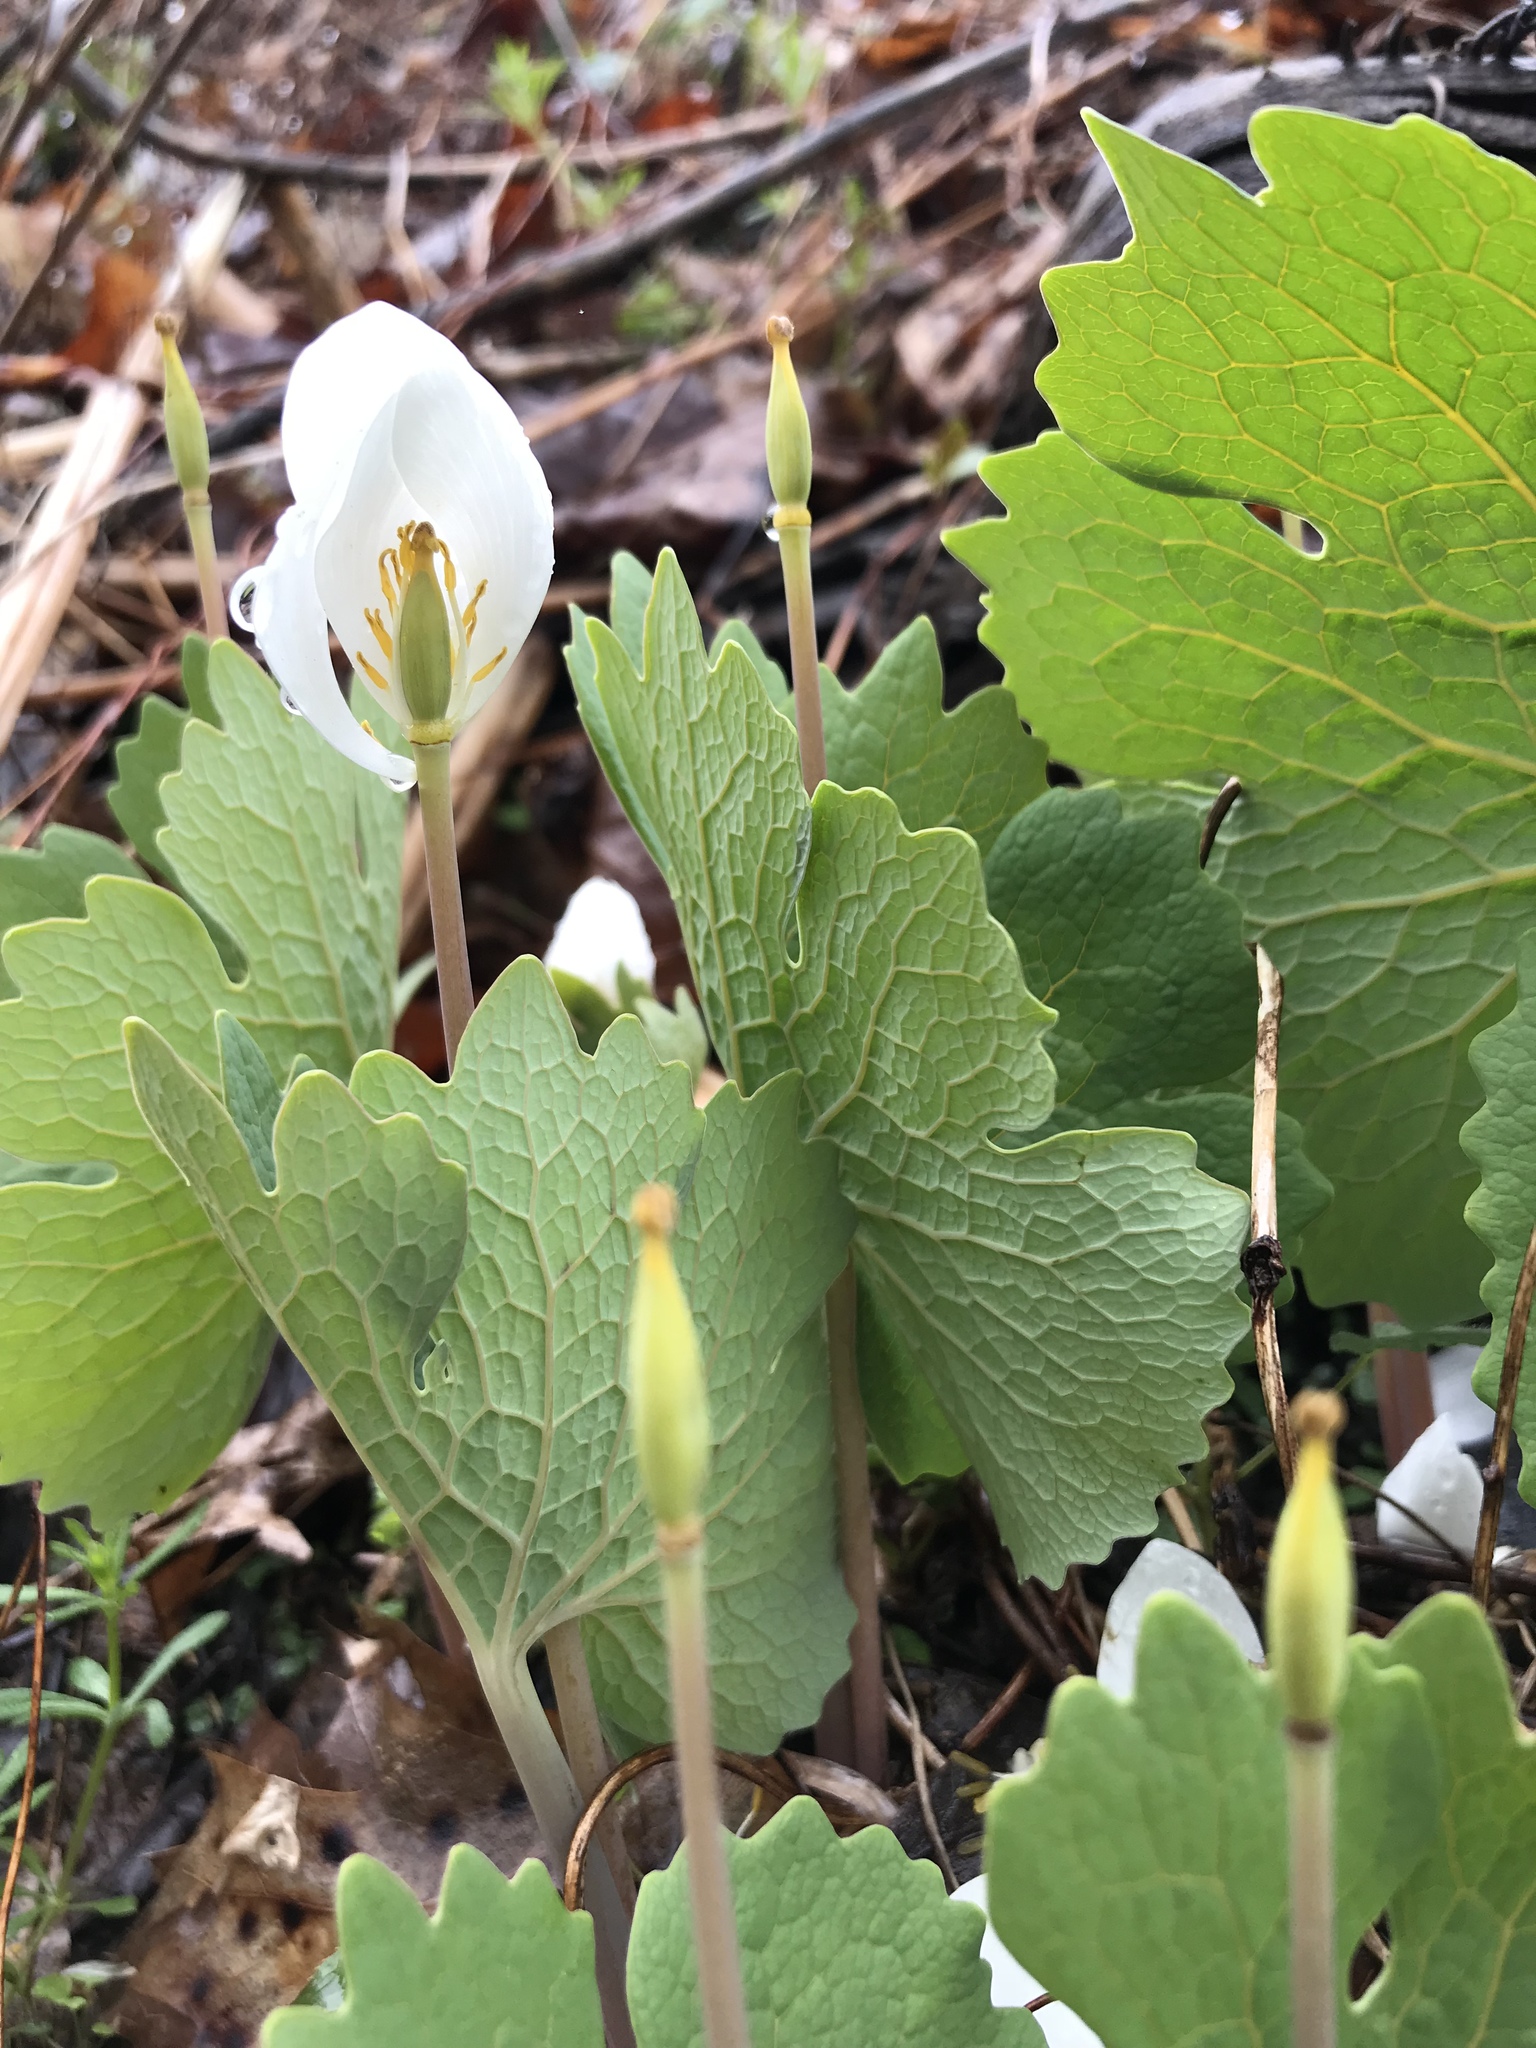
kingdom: Plantae
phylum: Tracheophyta
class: Magnoliopsida
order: Ranunculales
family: Papaveraceae
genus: Sanguinaria
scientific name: Sanguinaria canadensis
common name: Bloodroot
